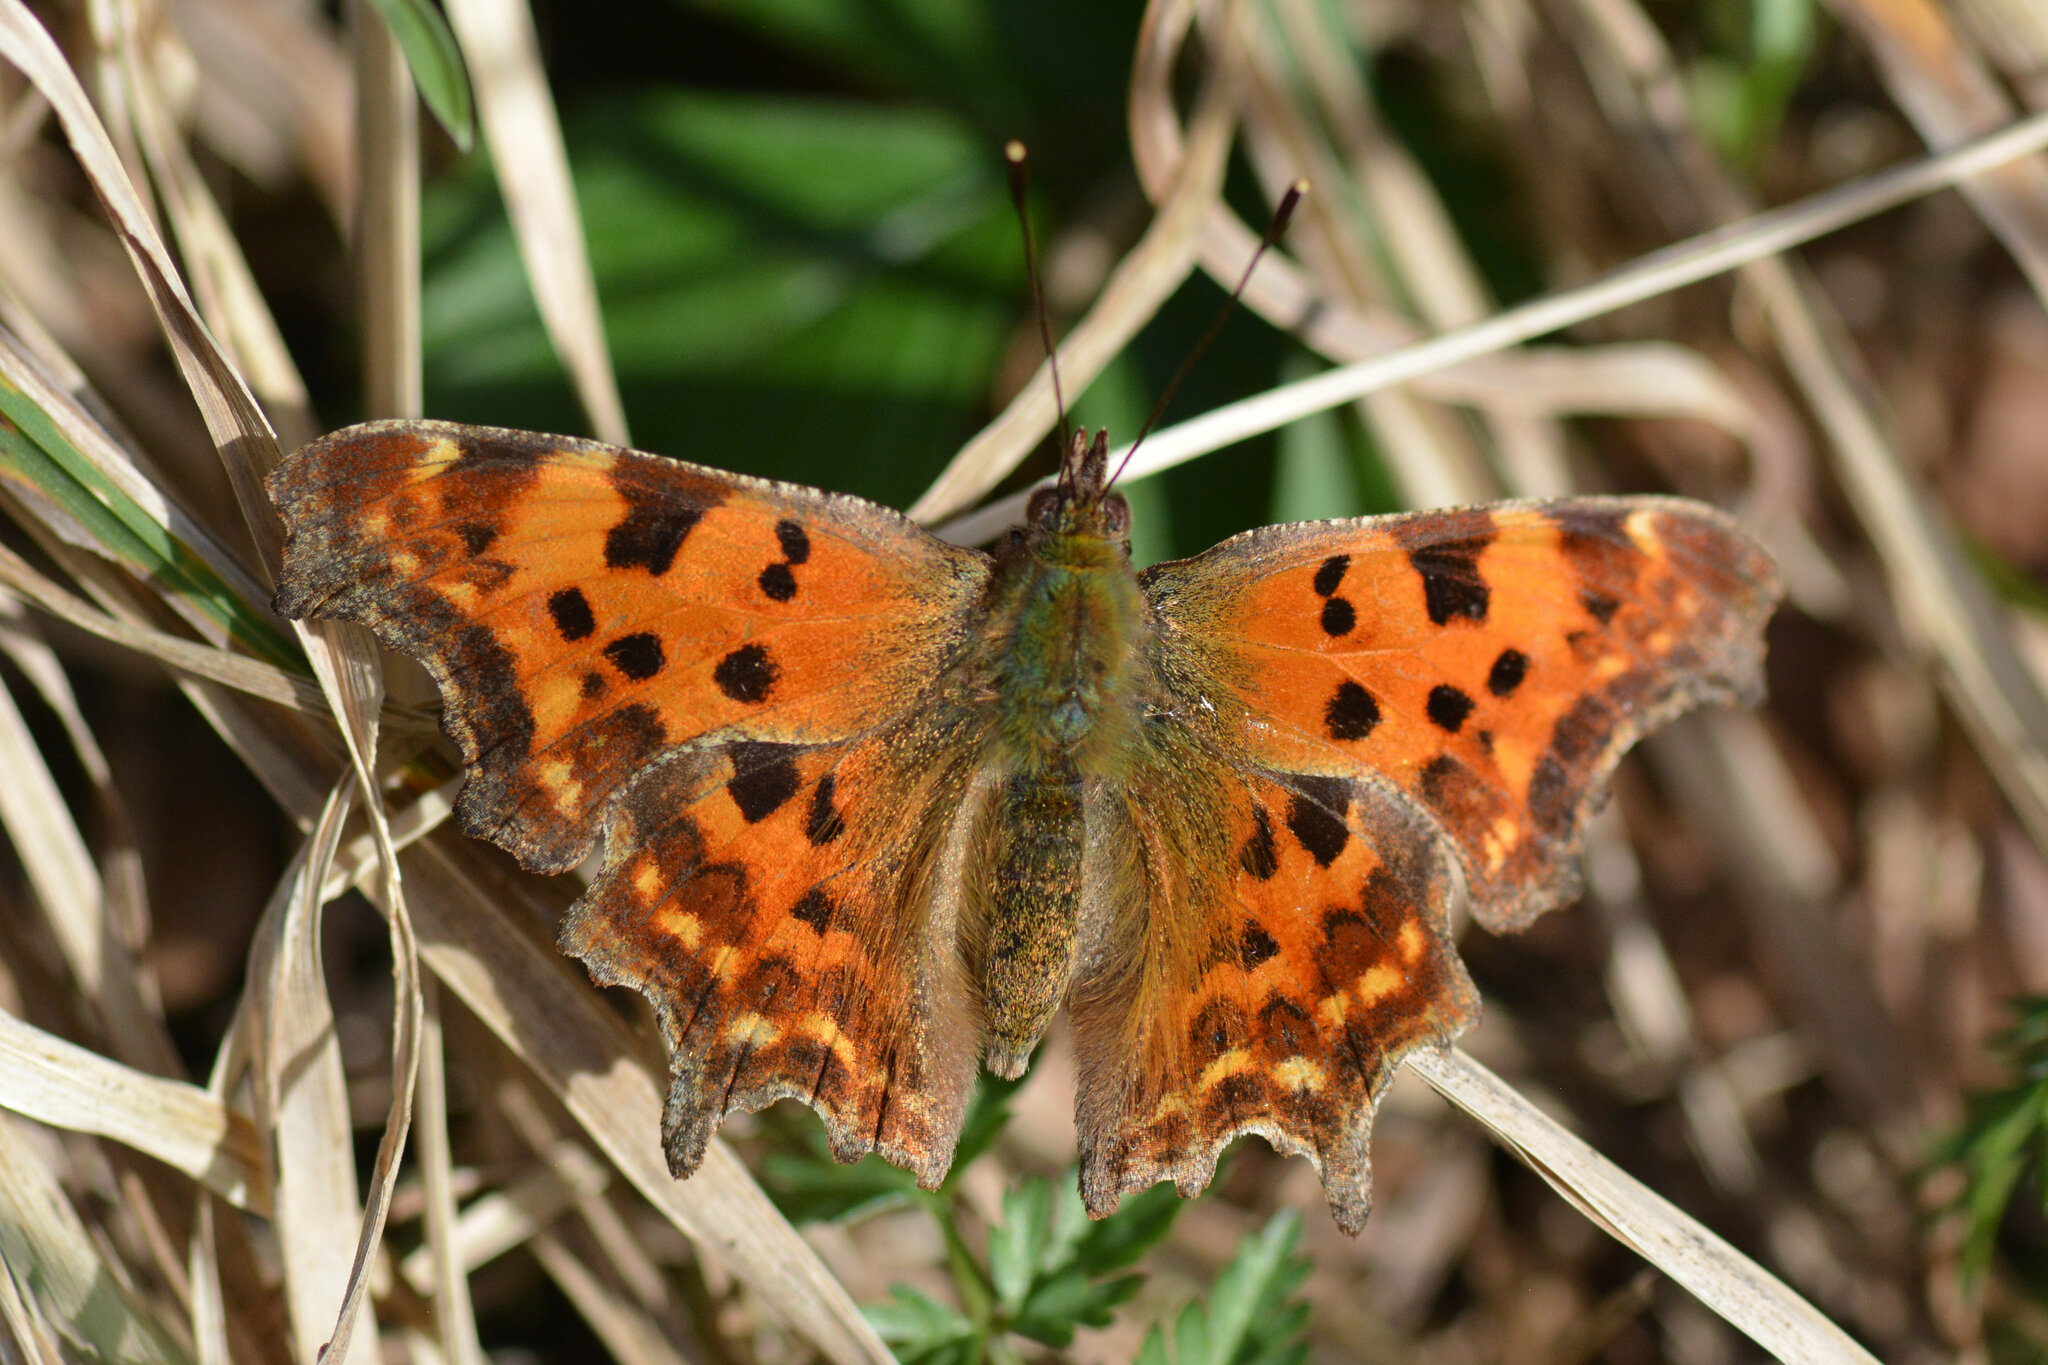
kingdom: Animalia
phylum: Arthropoda
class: Insecta
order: Lepidoptera
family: Nymphalidae
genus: Polygonia
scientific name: Polygonia c-album
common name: Comma
